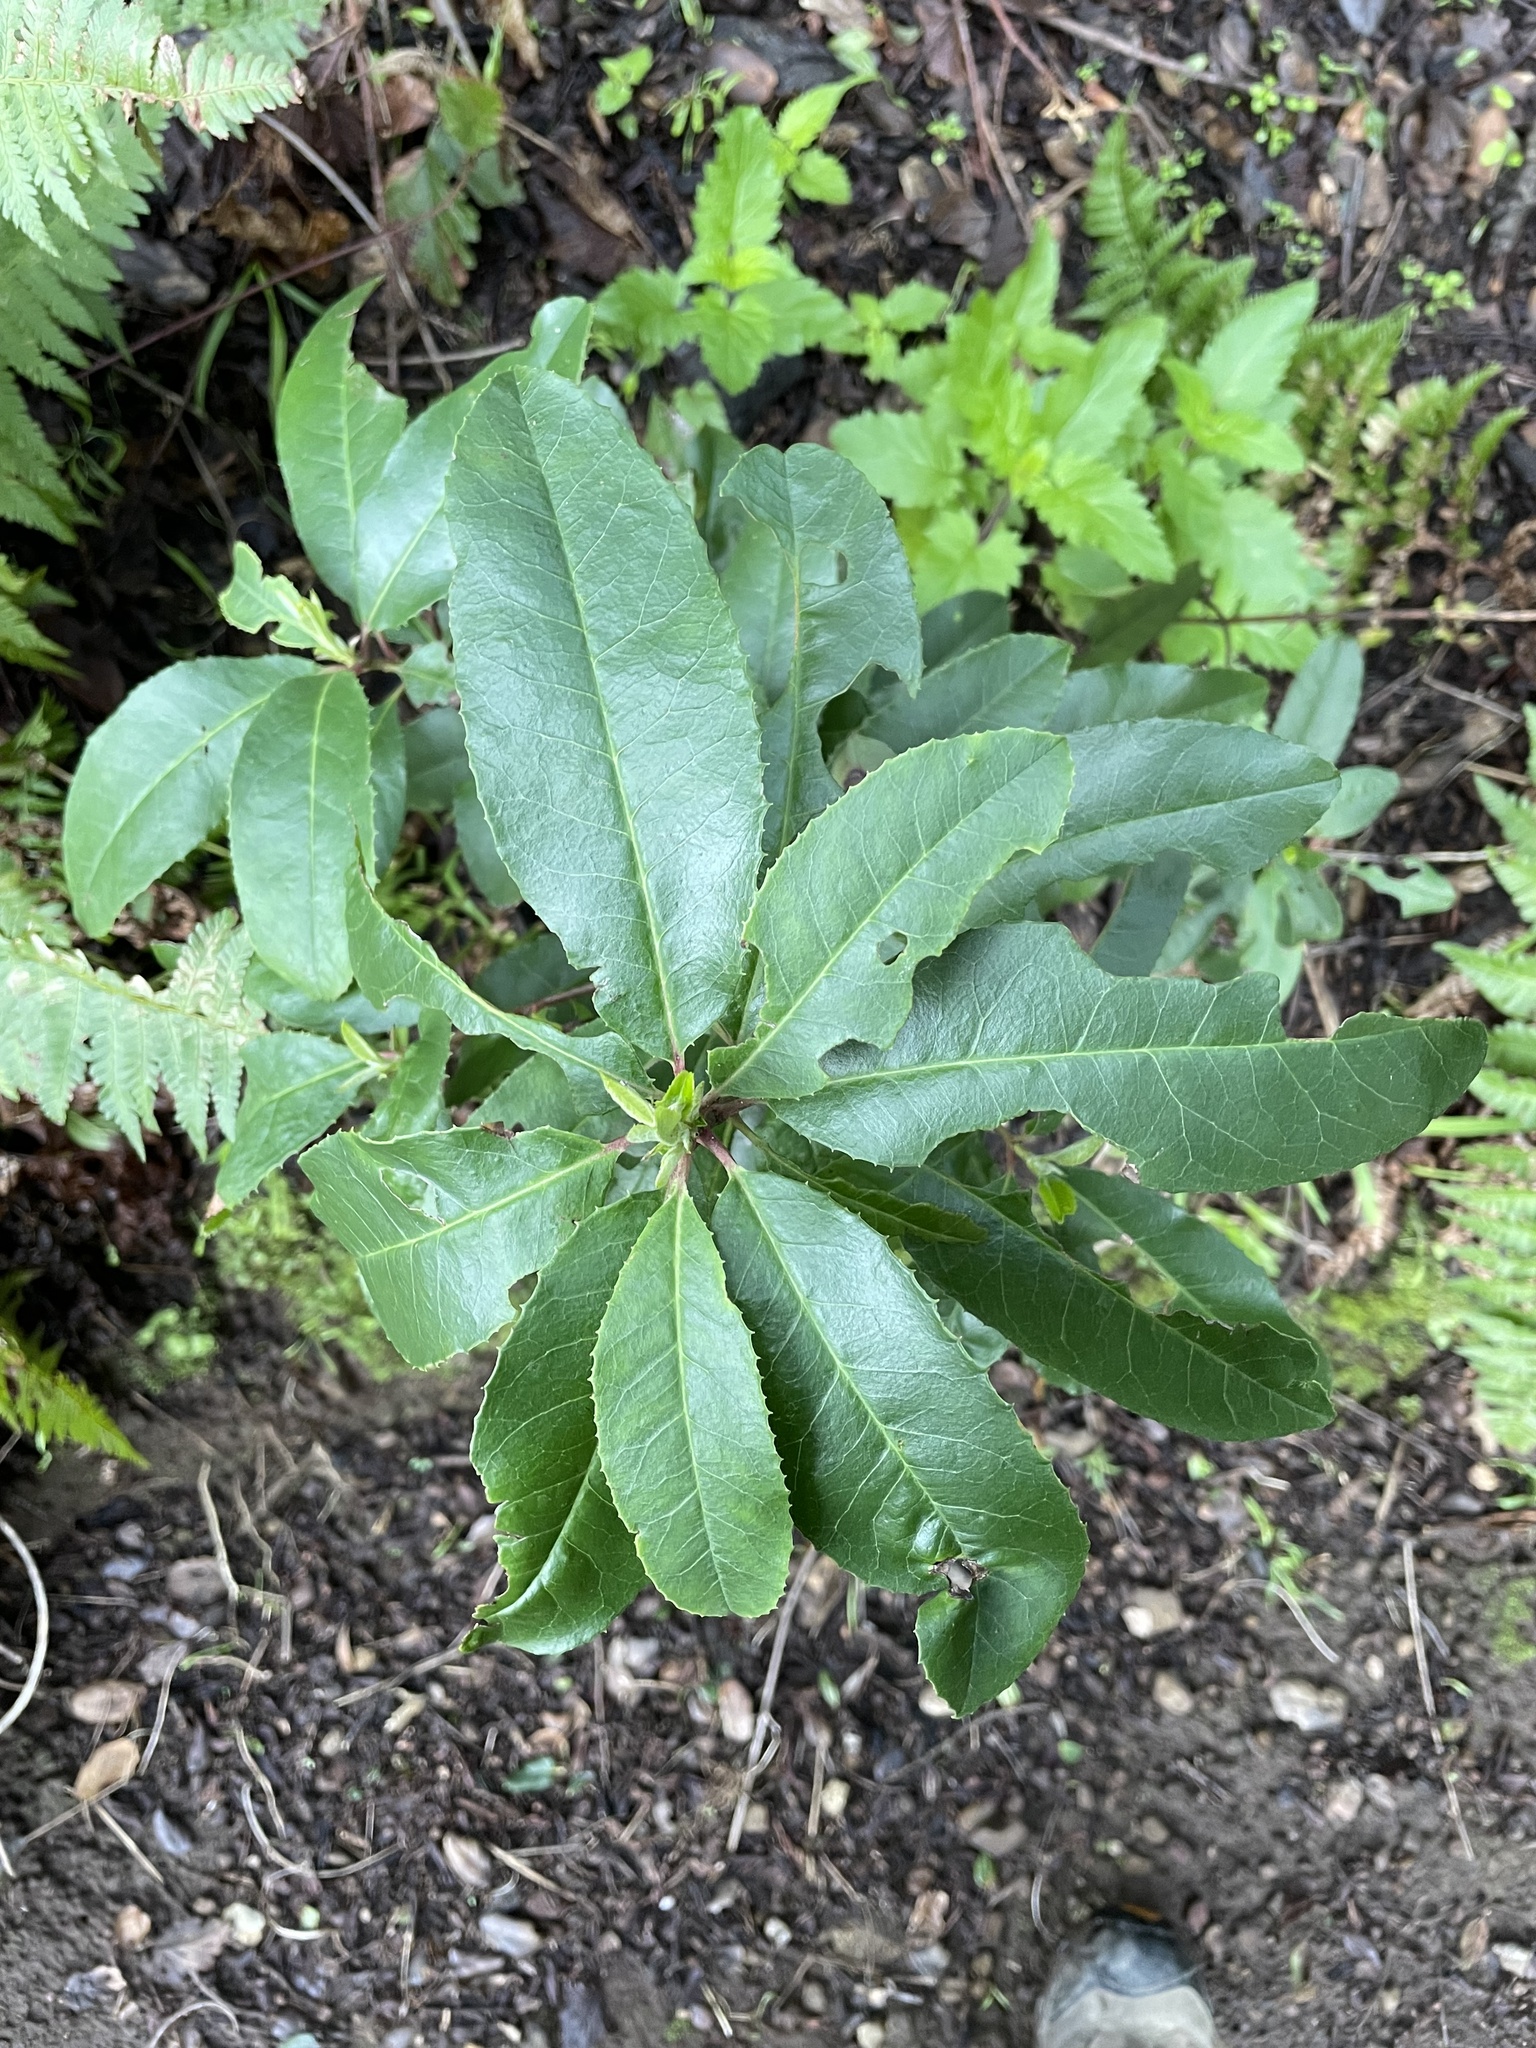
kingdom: Plantae
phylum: Tracheophyta
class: Magnoliopsida
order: Rosales
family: Rosaceae
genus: Heteromeles
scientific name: Heteromeles arbutifolia
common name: California-holly
